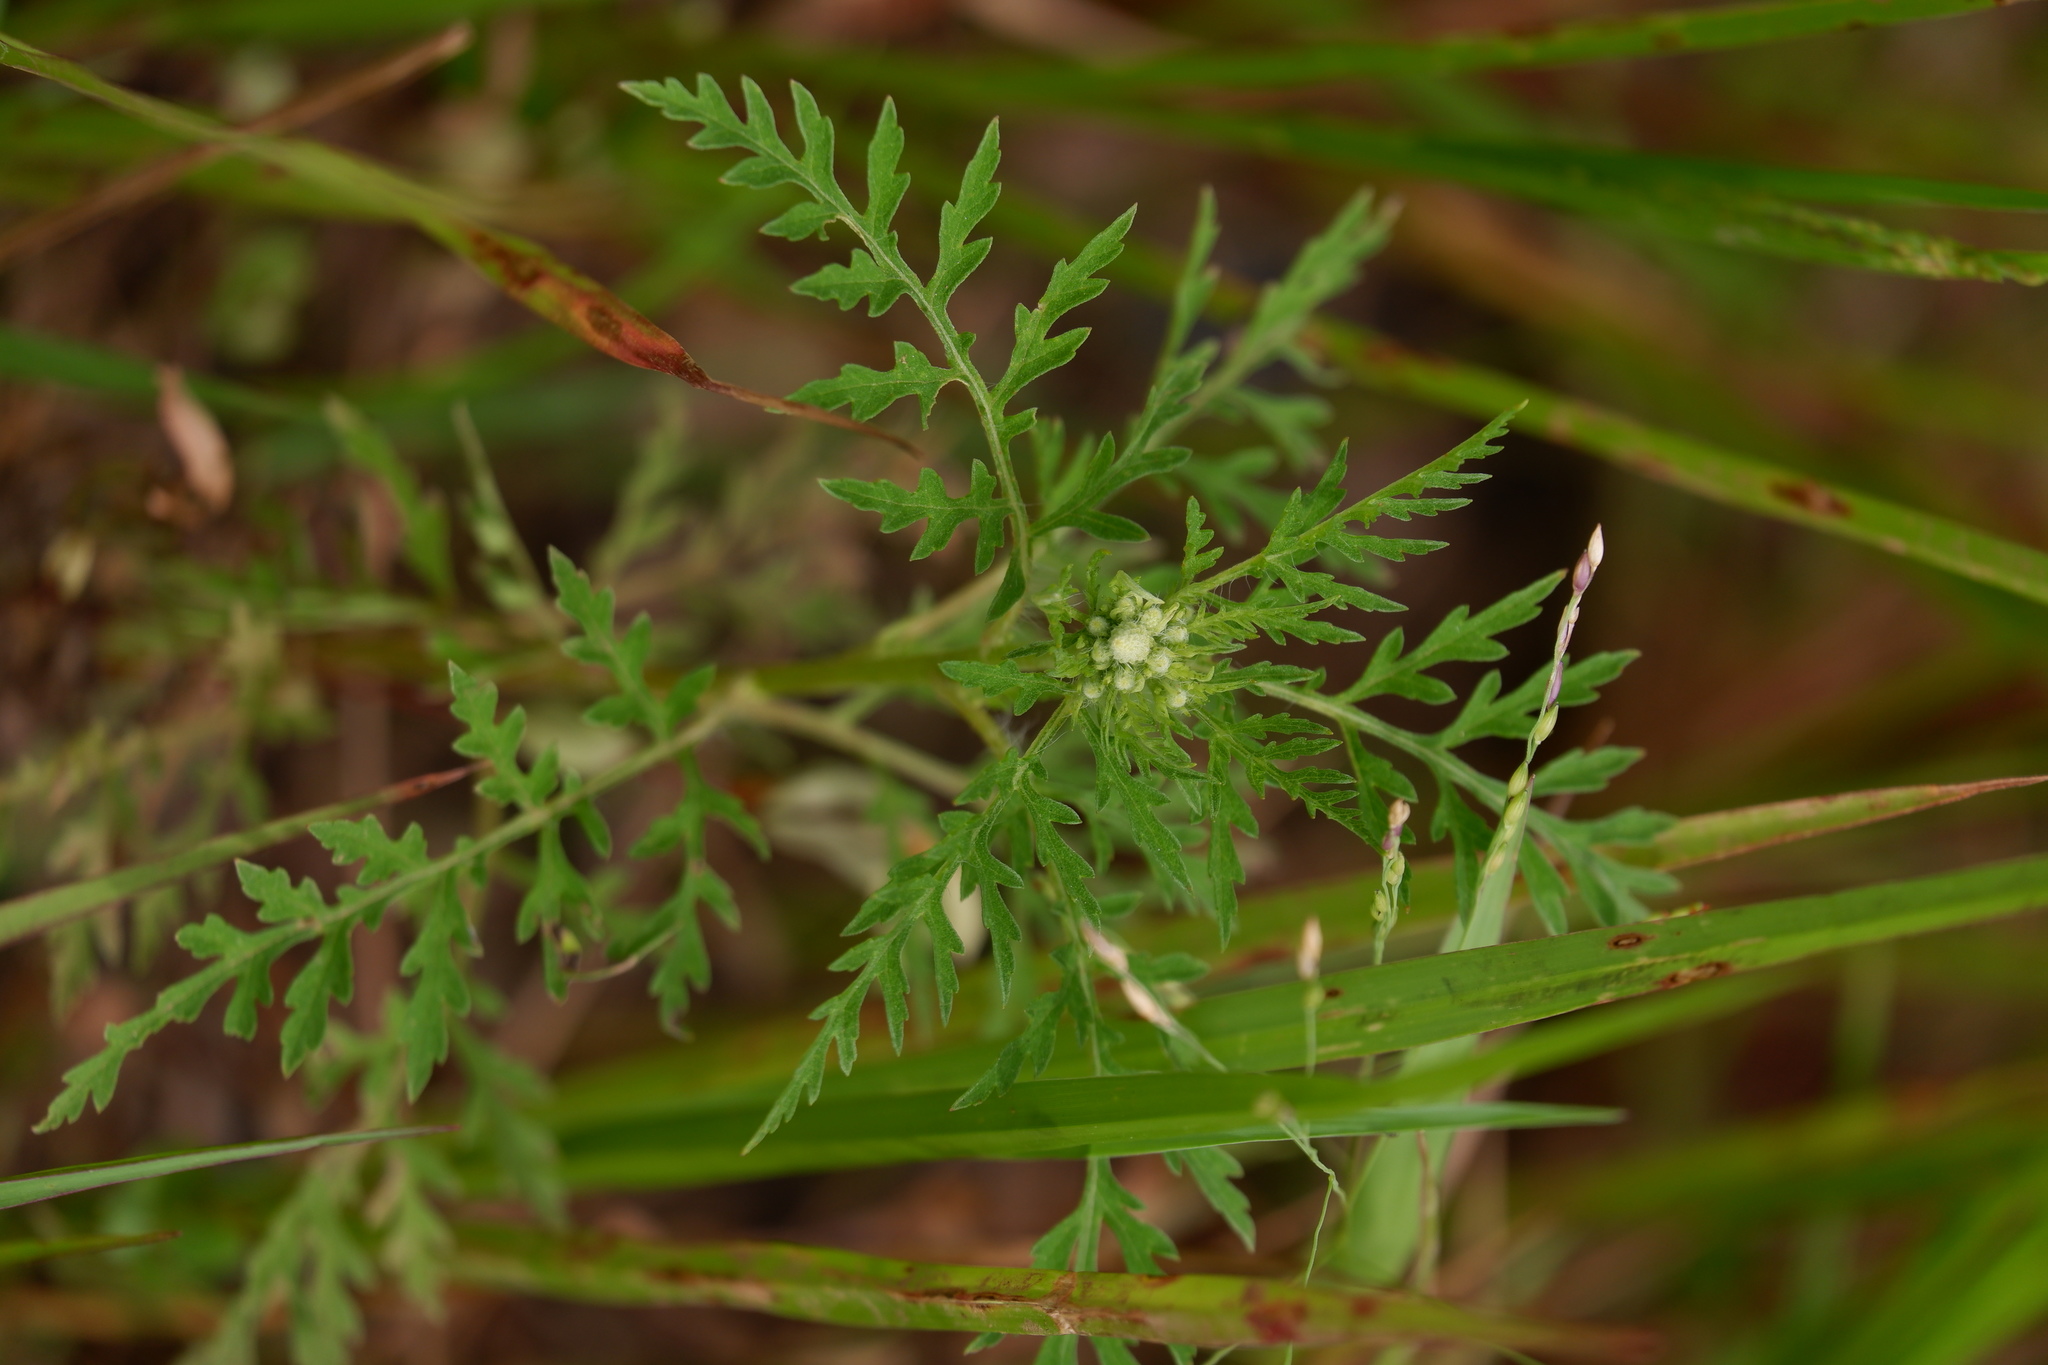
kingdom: Plantae
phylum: Tracheophyta
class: Magnoliopsida
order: Asterales
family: Asteraceae
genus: Ambrosia
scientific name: Ambrosia artemisiifolia
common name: Annual ragweed
